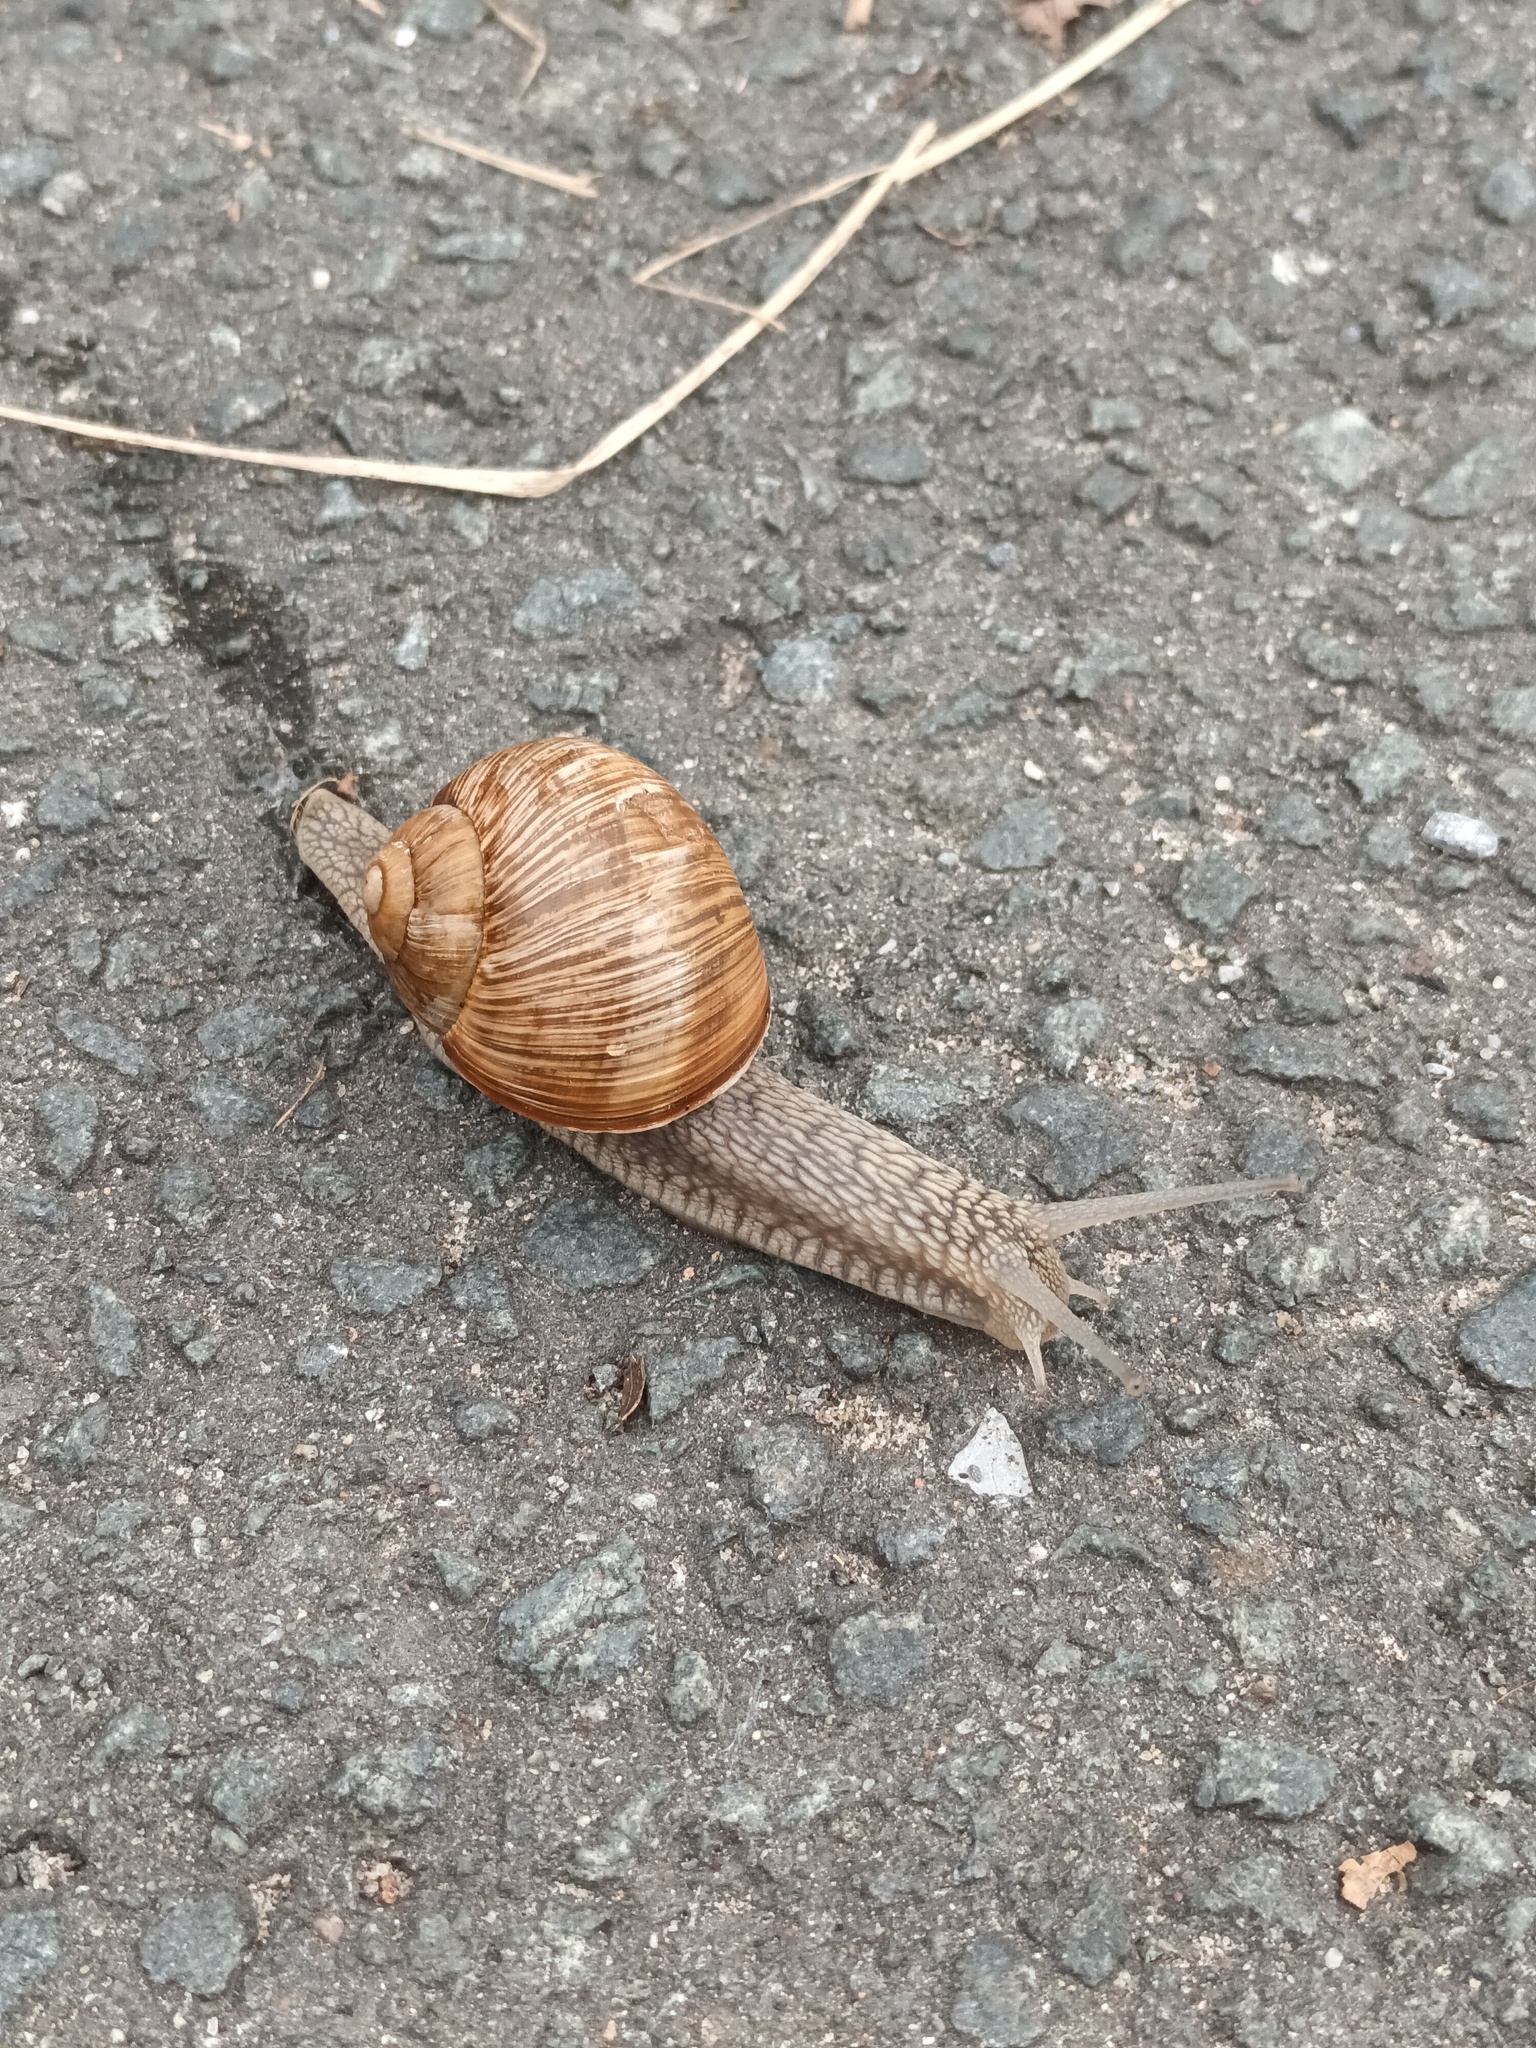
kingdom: Animalia
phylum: Mollusca
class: Gastropoda
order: Stylommatophora
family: Helicidae
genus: Helix
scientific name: Helix pomatia
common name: Roman snail
